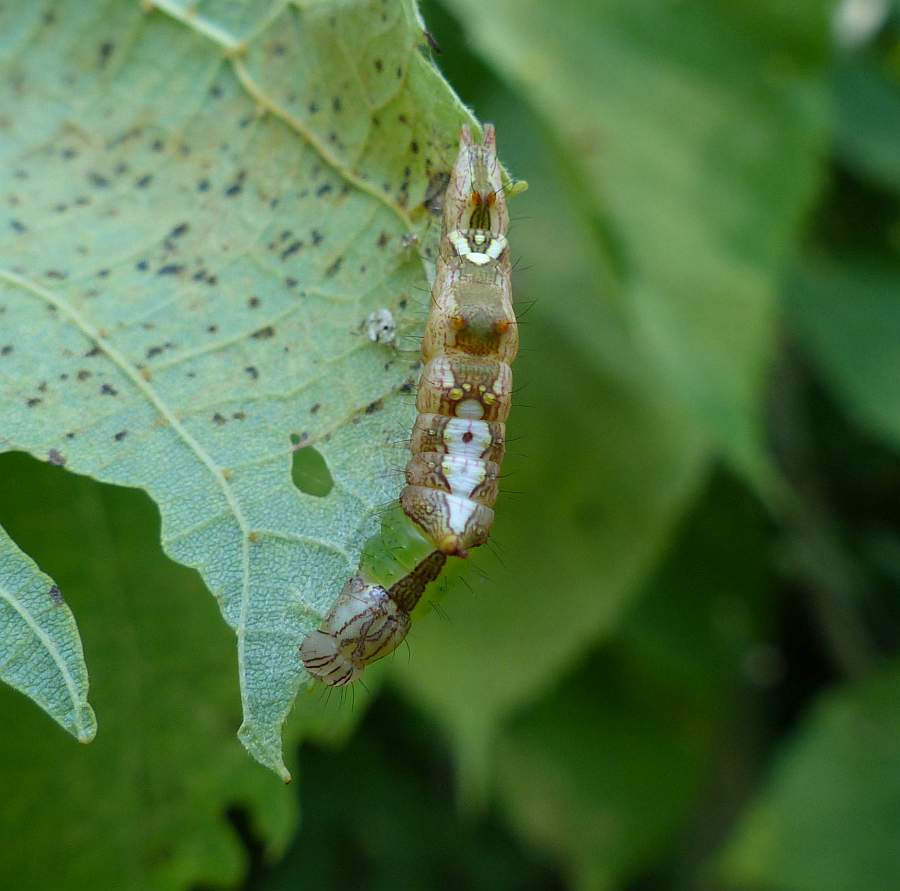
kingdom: Animalia
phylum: Arthropoda
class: Insecta
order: Lepidoptera
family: Notodontidae
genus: Schizura
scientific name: Schizura ipomaeae
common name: Morning-glory prominent
